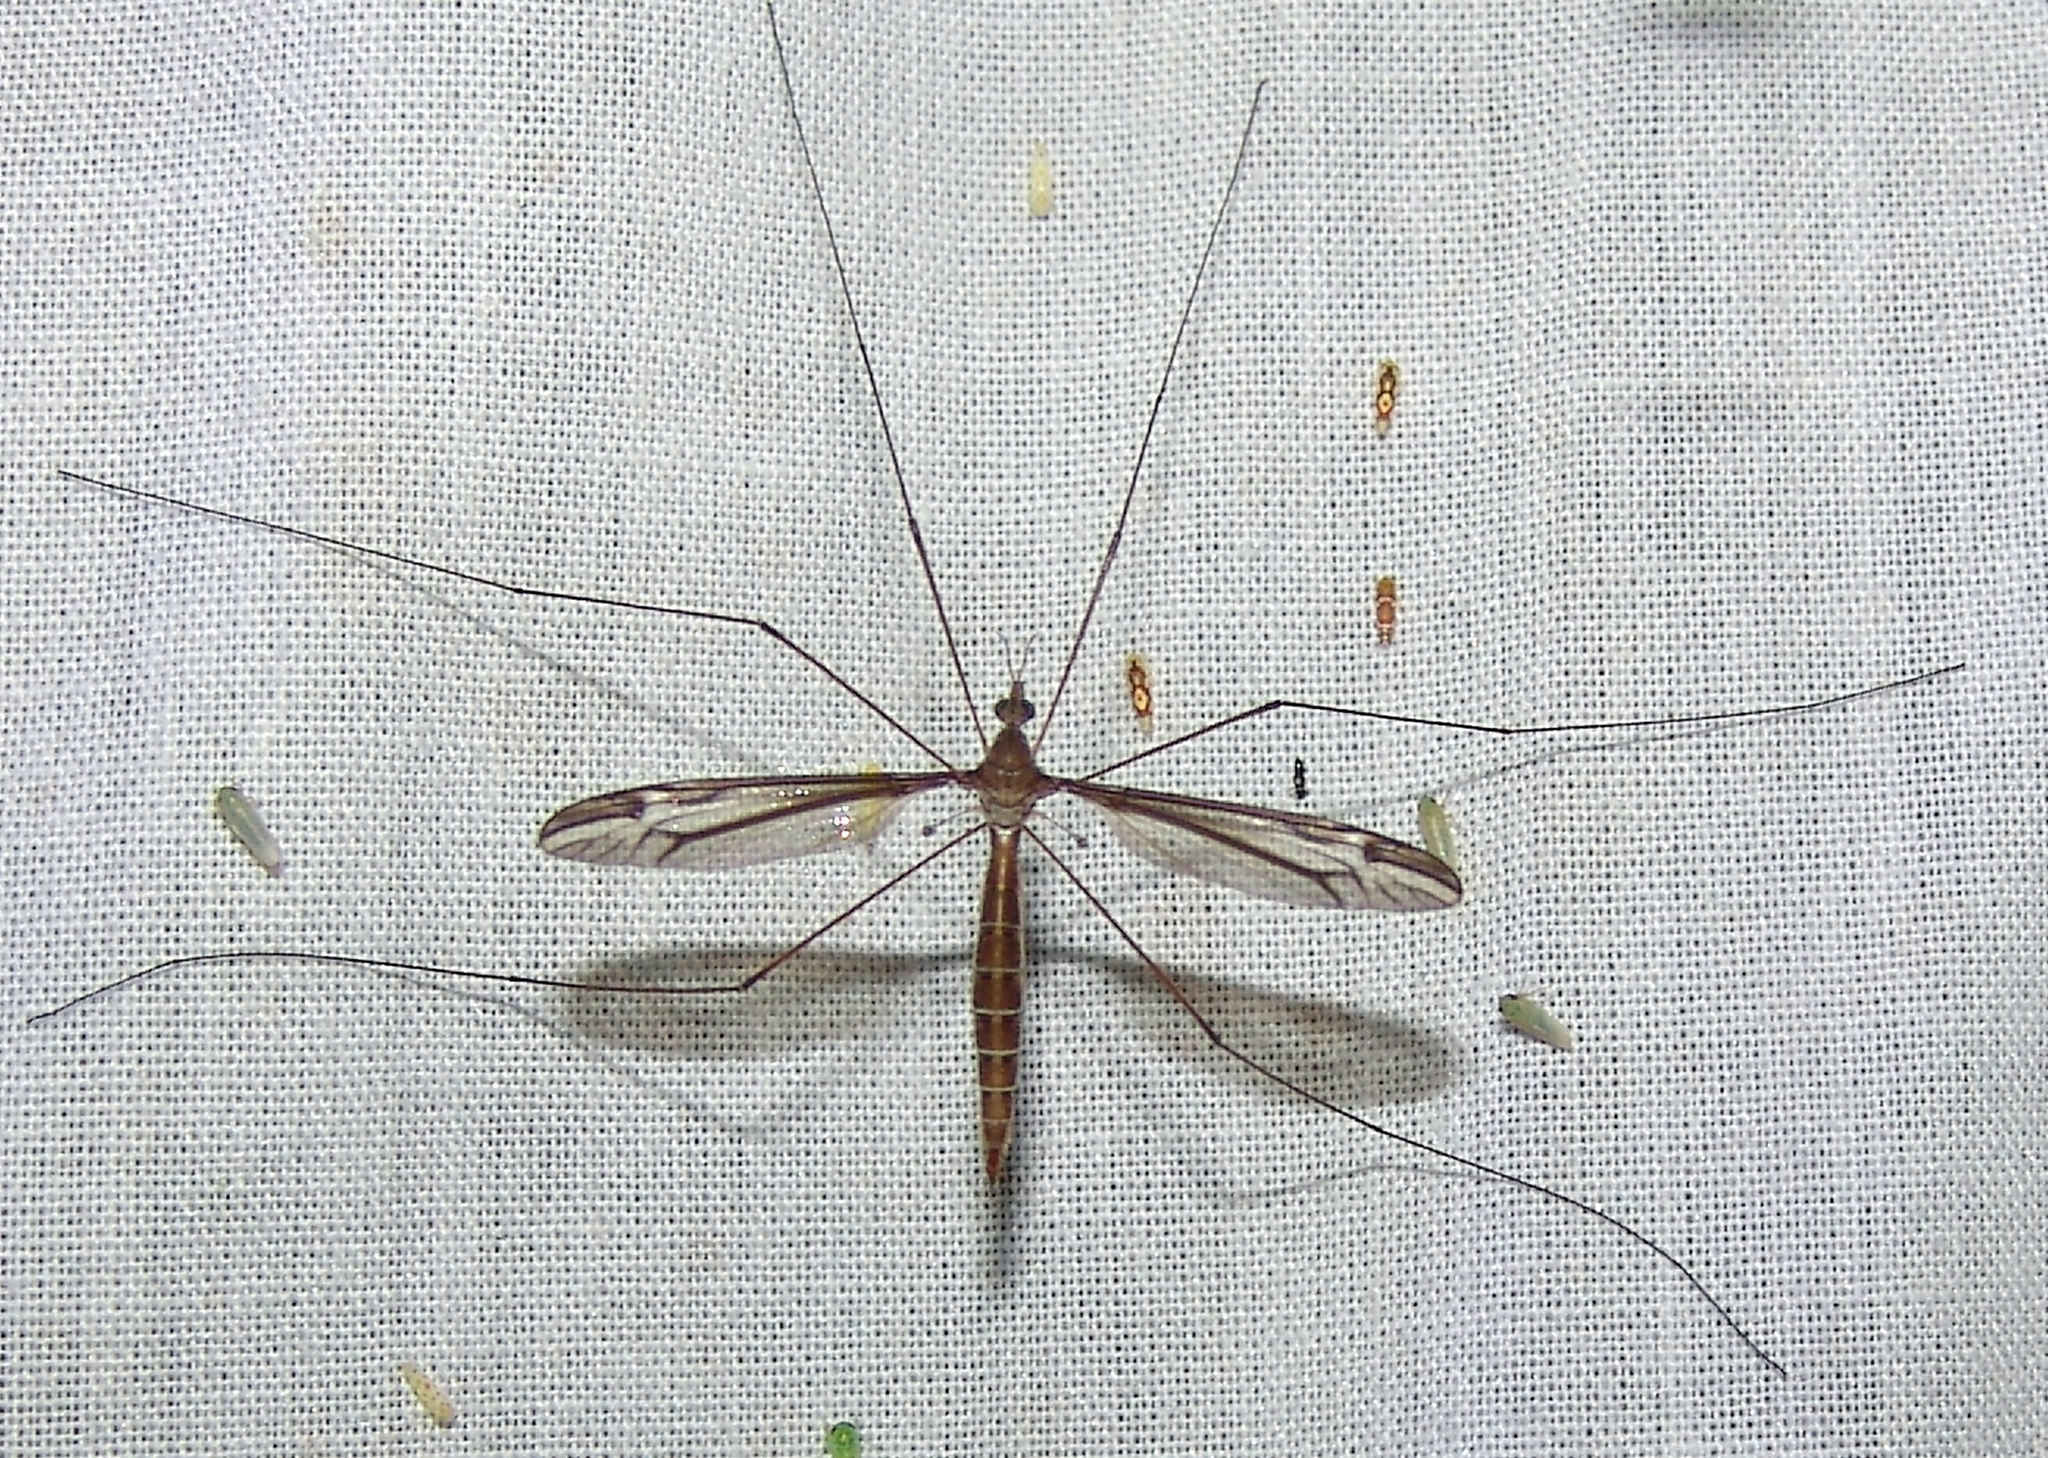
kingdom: Animalia
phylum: Arthropoda
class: Insecta
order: Diptera
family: Tipulidae
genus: Tipula
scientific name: Tipula furca
